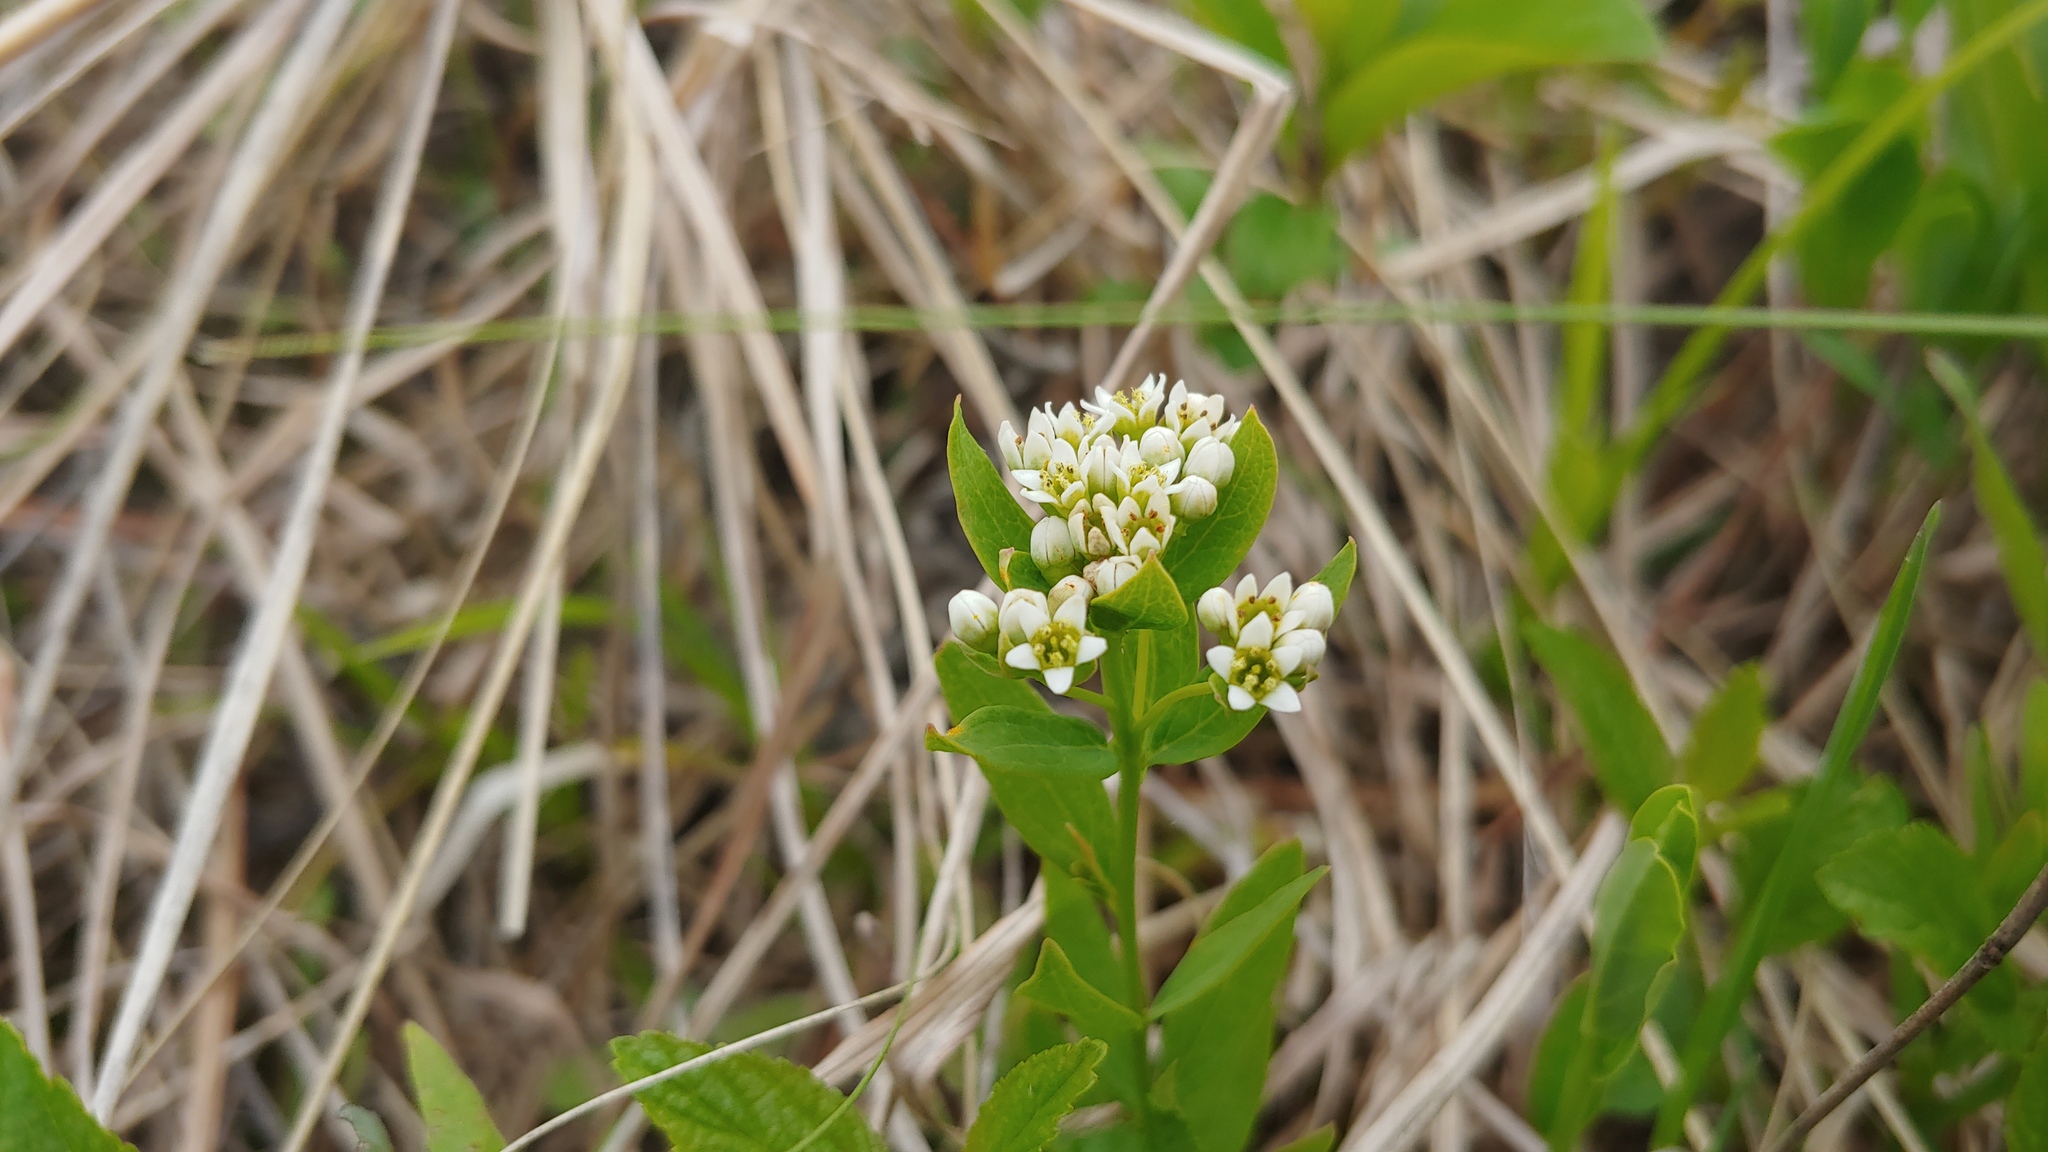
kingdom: Plantae
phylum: Tracheophyta
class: Magnoliopsida
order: Santalales
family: Comandraceae
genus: Comandra
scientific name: Comandra umbellata
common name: Bastard toadflax
